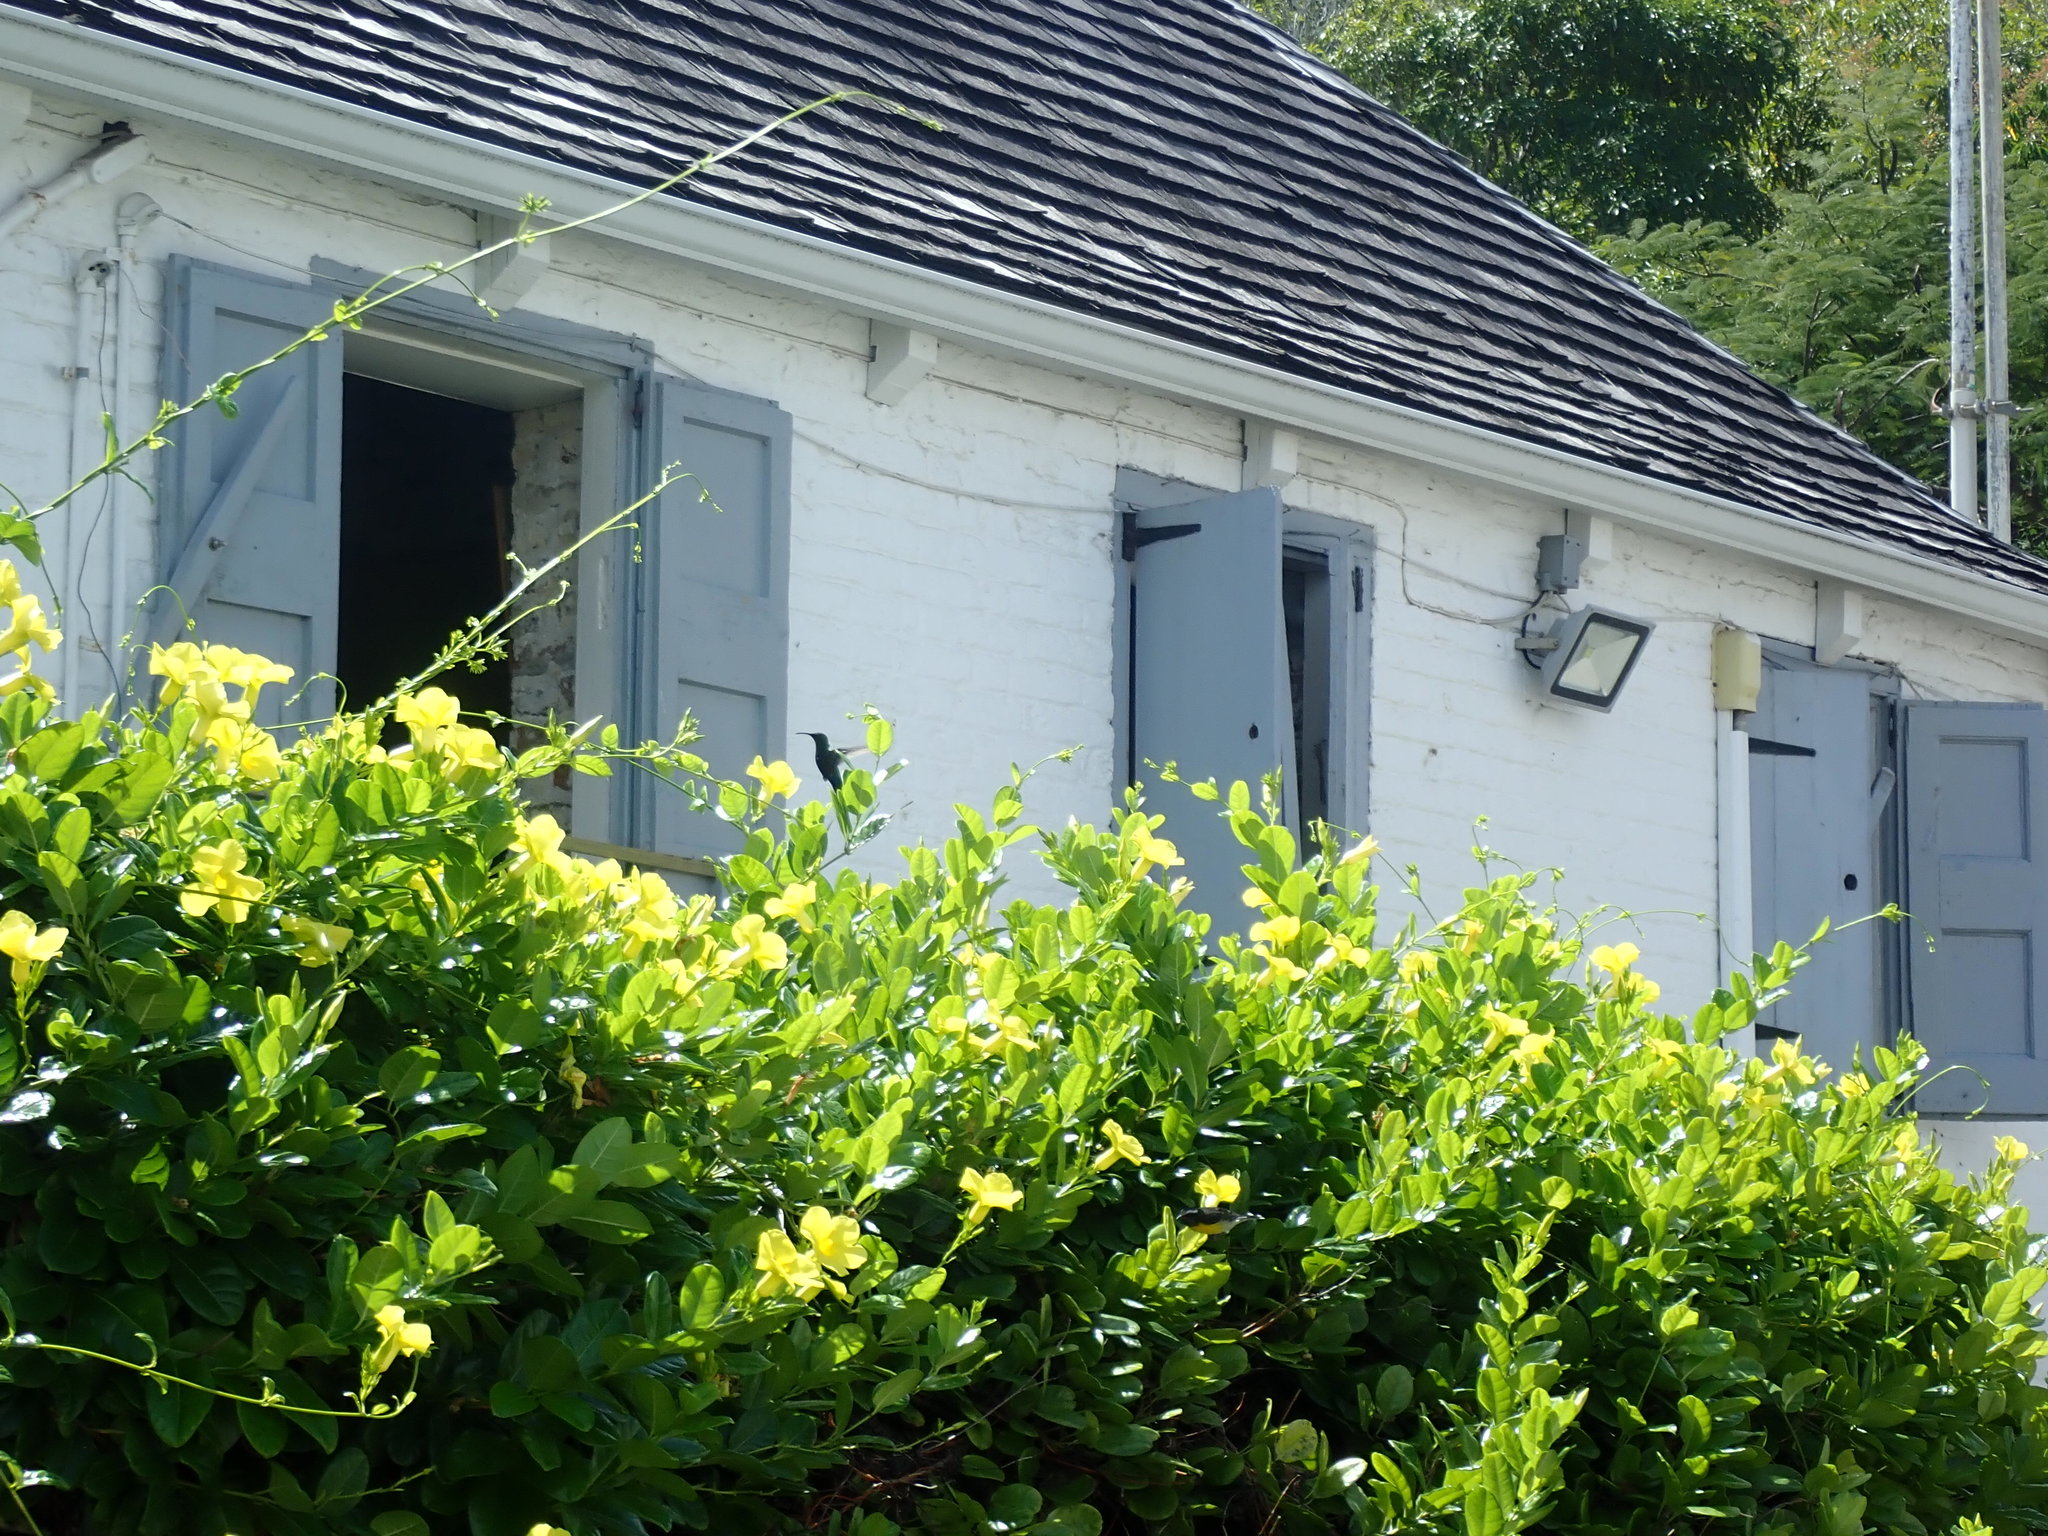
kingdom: Animalia
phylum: Chordata
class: Aves
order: Apodiformes
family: Trochilidae
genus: Eulampis
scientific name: Eulampis holosericeus
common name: Green-throated carib
